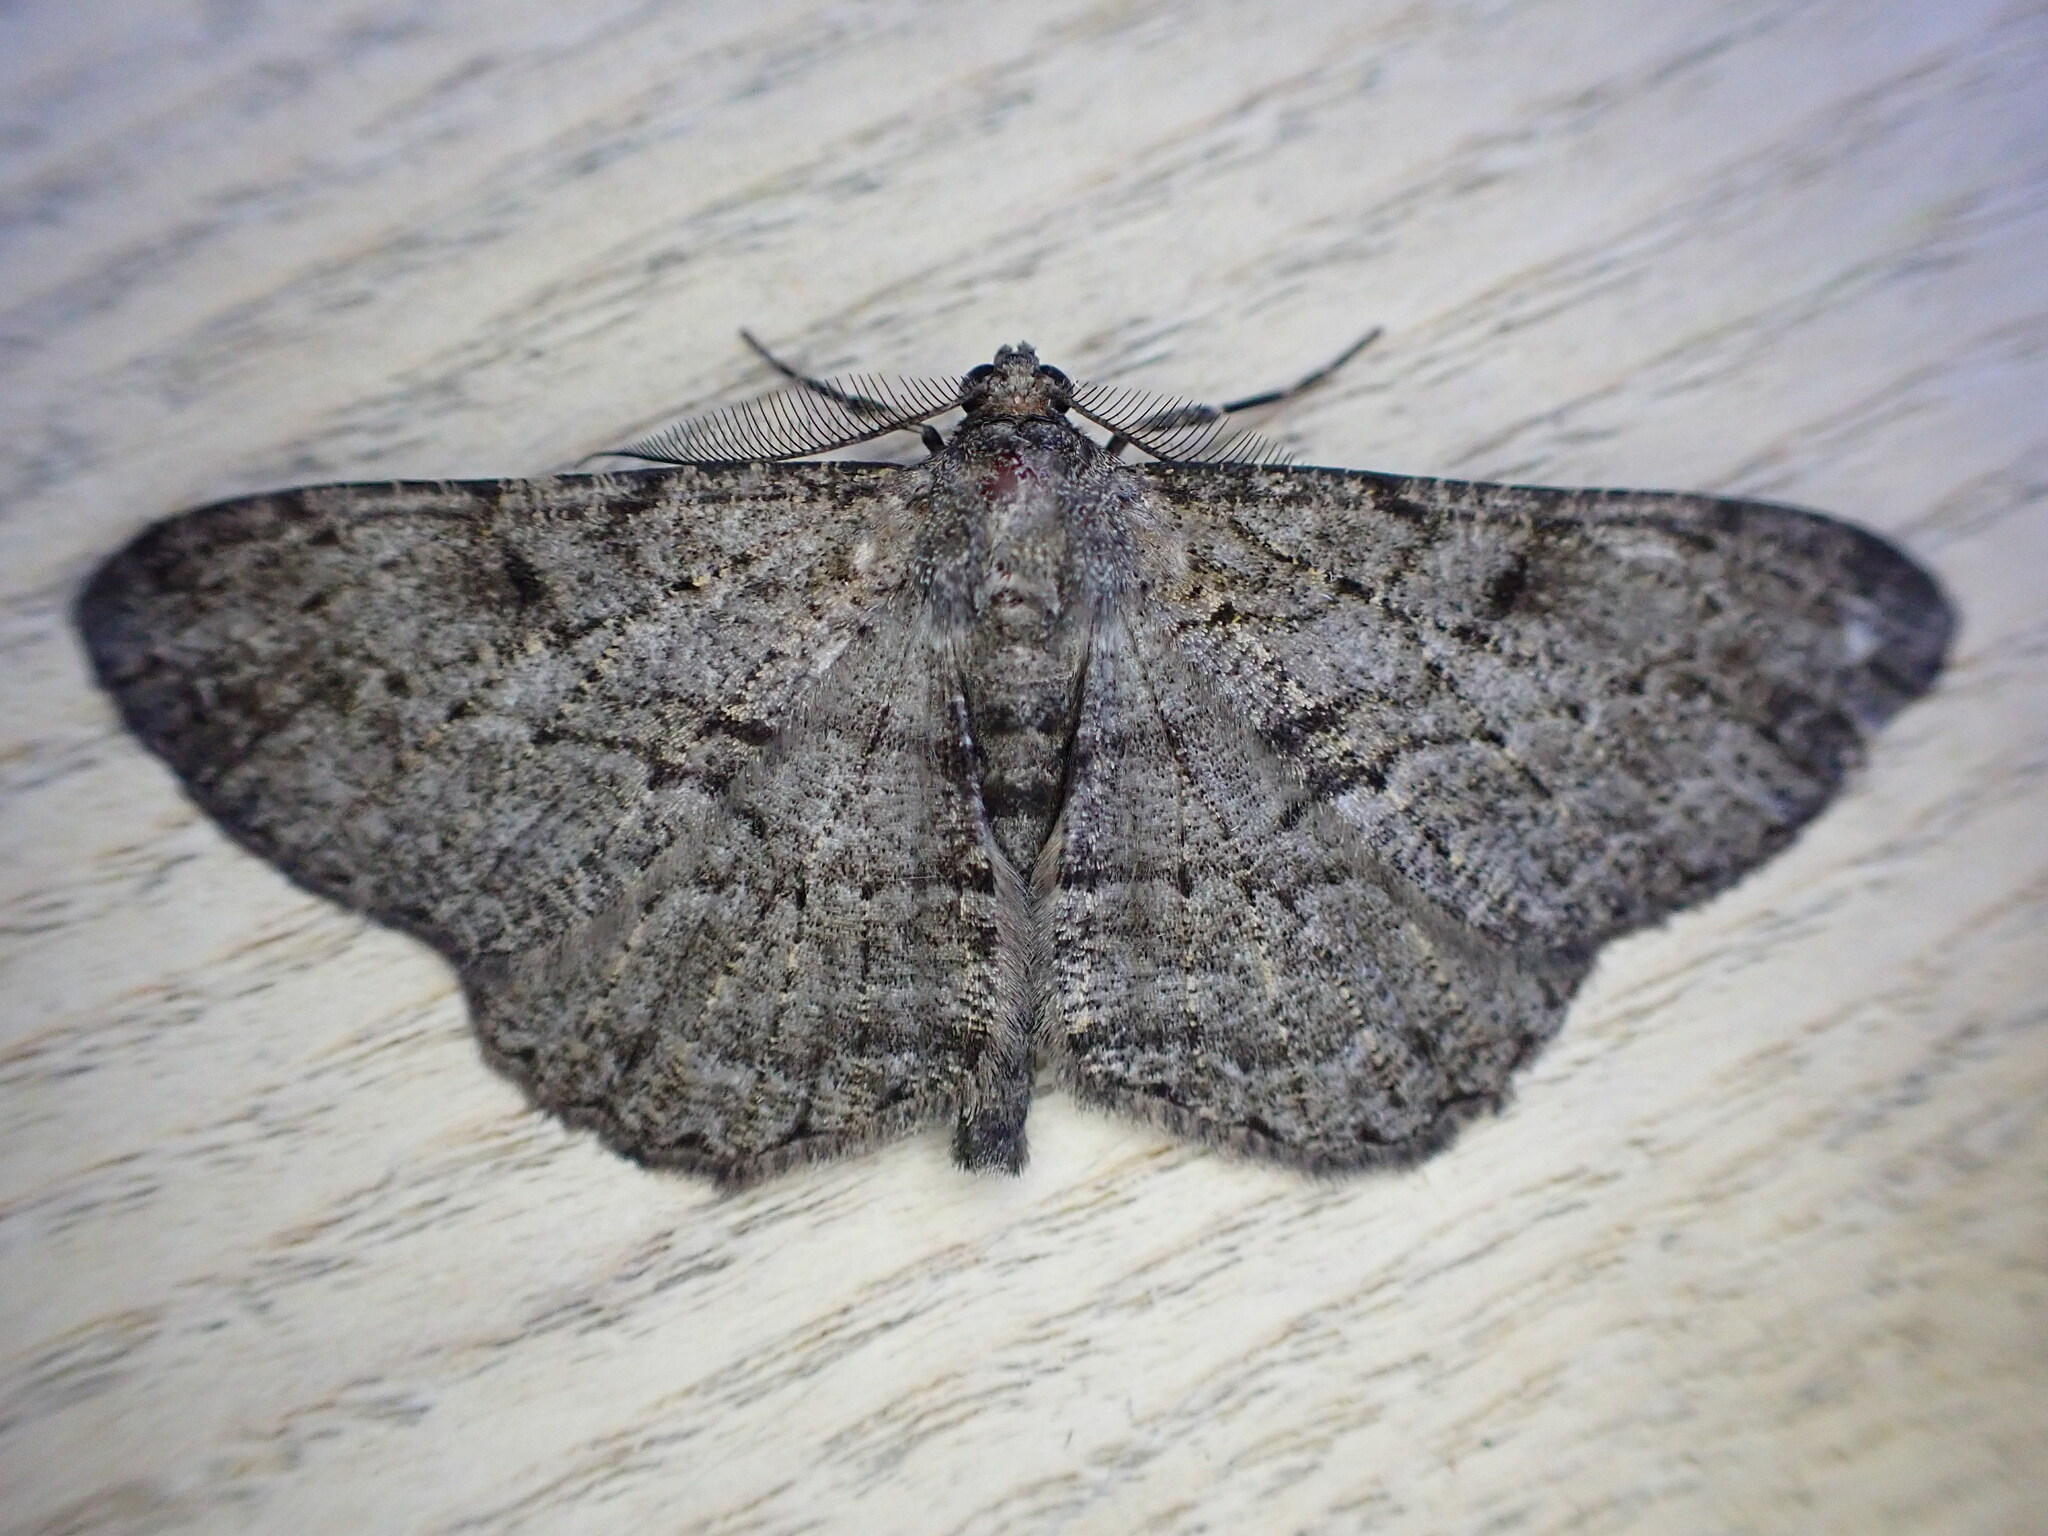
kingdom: Animalia
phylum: Arthropoda
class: Insecta
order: Lepidoptera
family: Geometridae
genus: Peribatodes
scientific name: Peribatodes rhomboidaria
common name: Willow beauty
